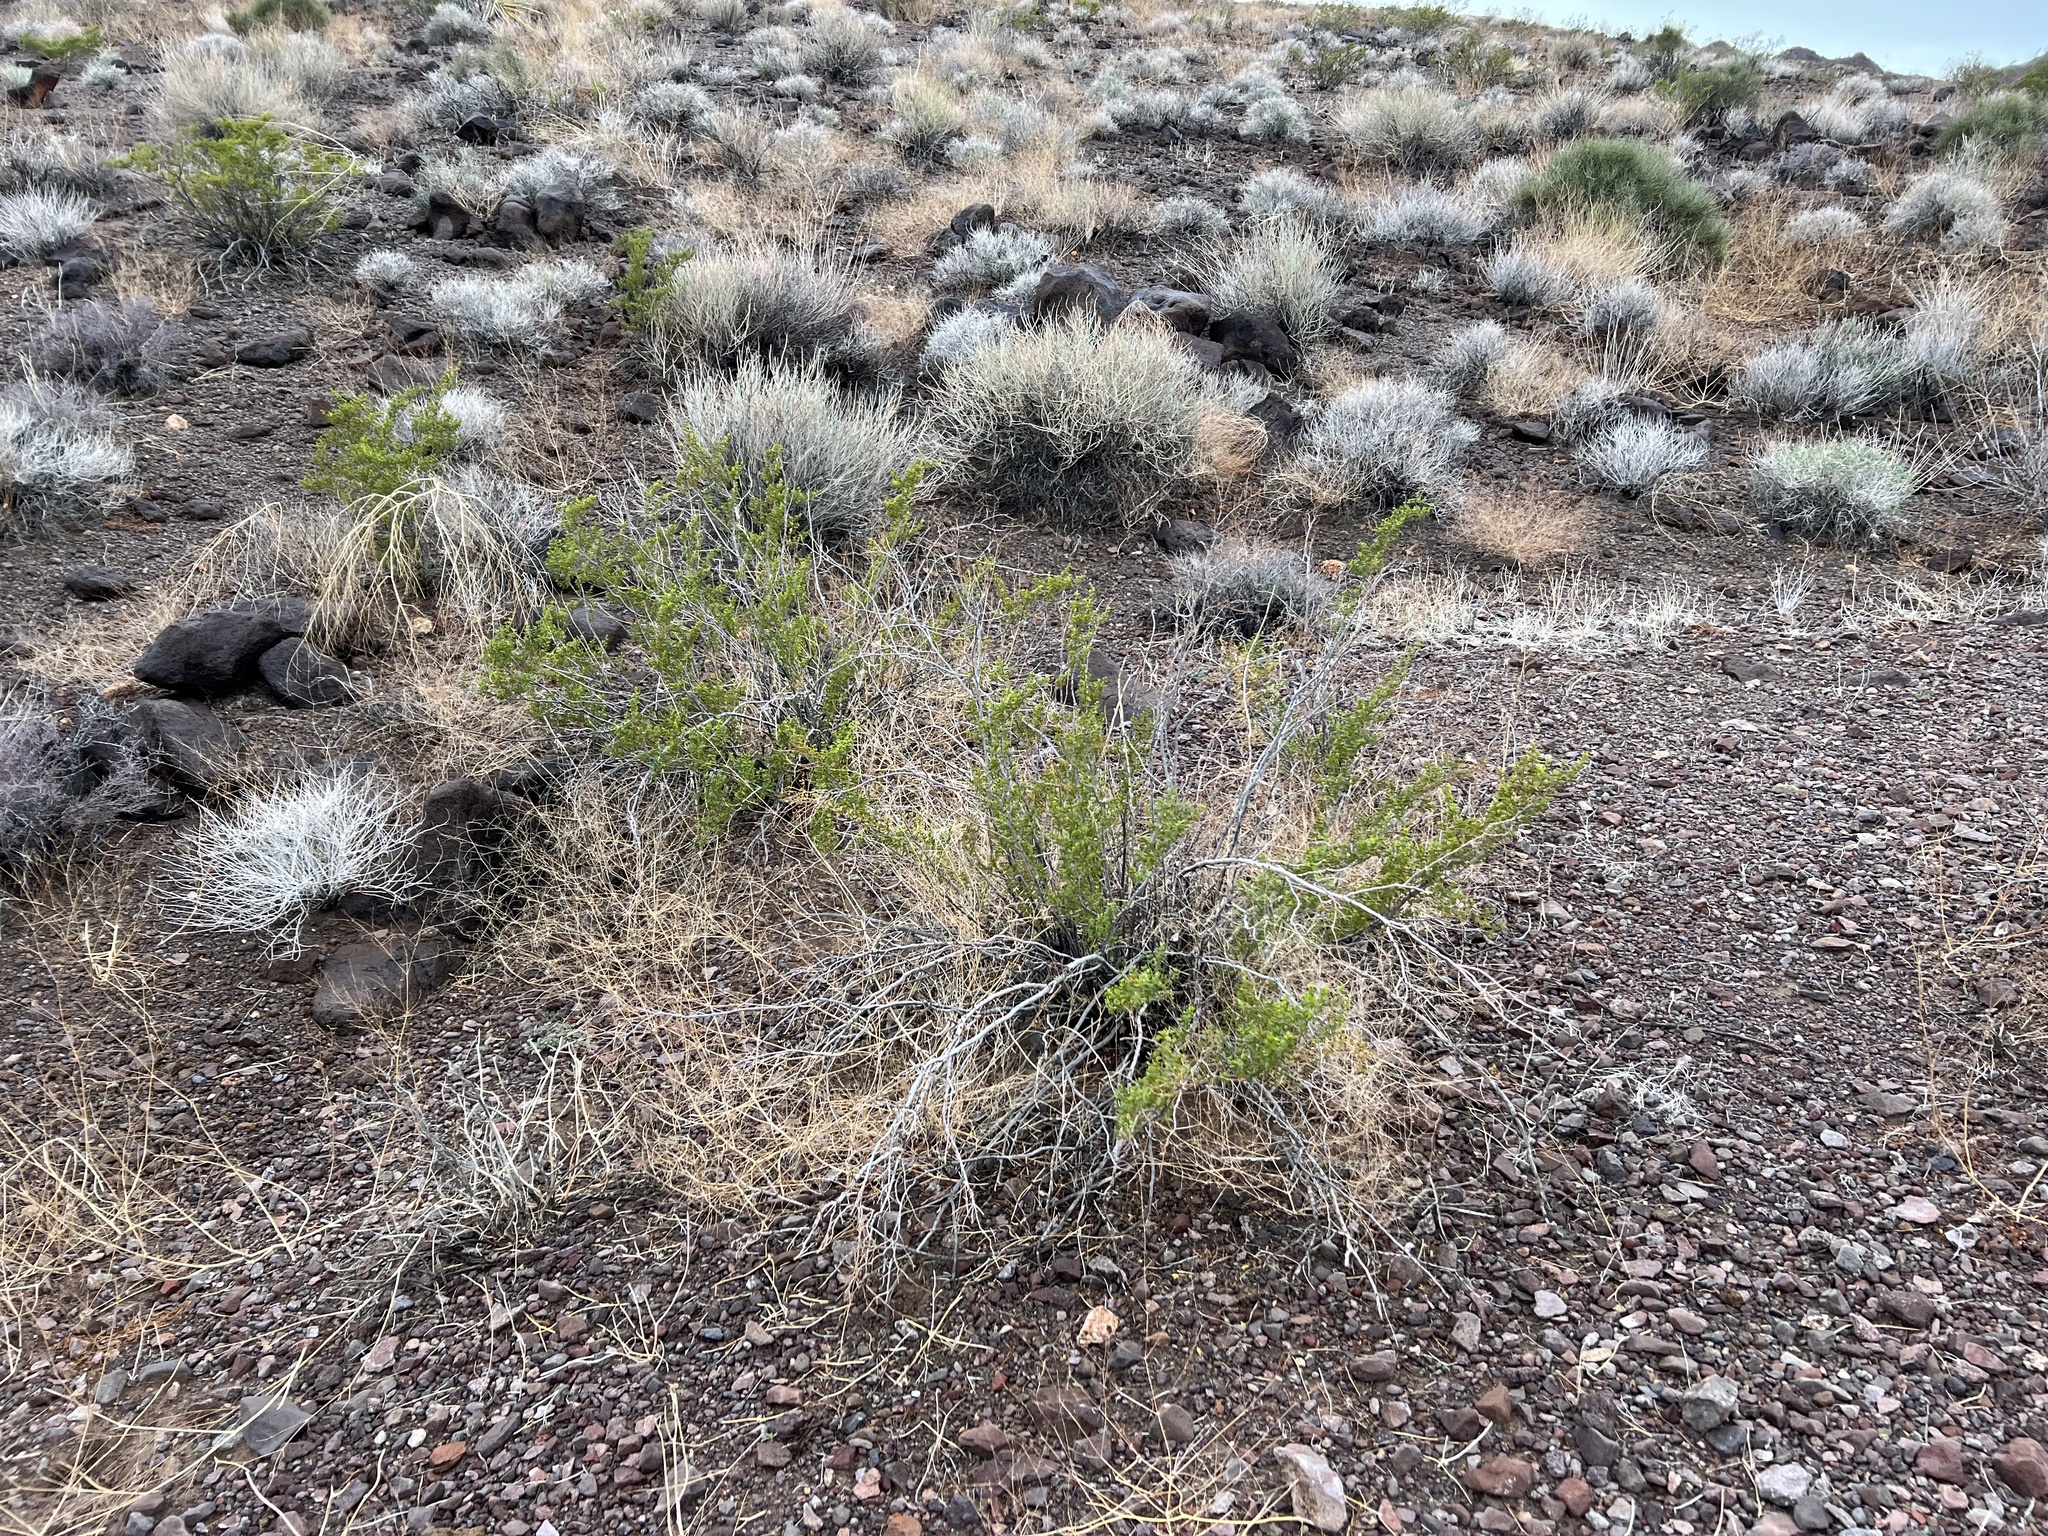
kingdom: Plantae
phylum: Tracheophyta
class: Magnoliopsida
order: Zygophyllales
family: Zygophyllaceae
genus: Larrea
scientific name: Larrea tridentata
